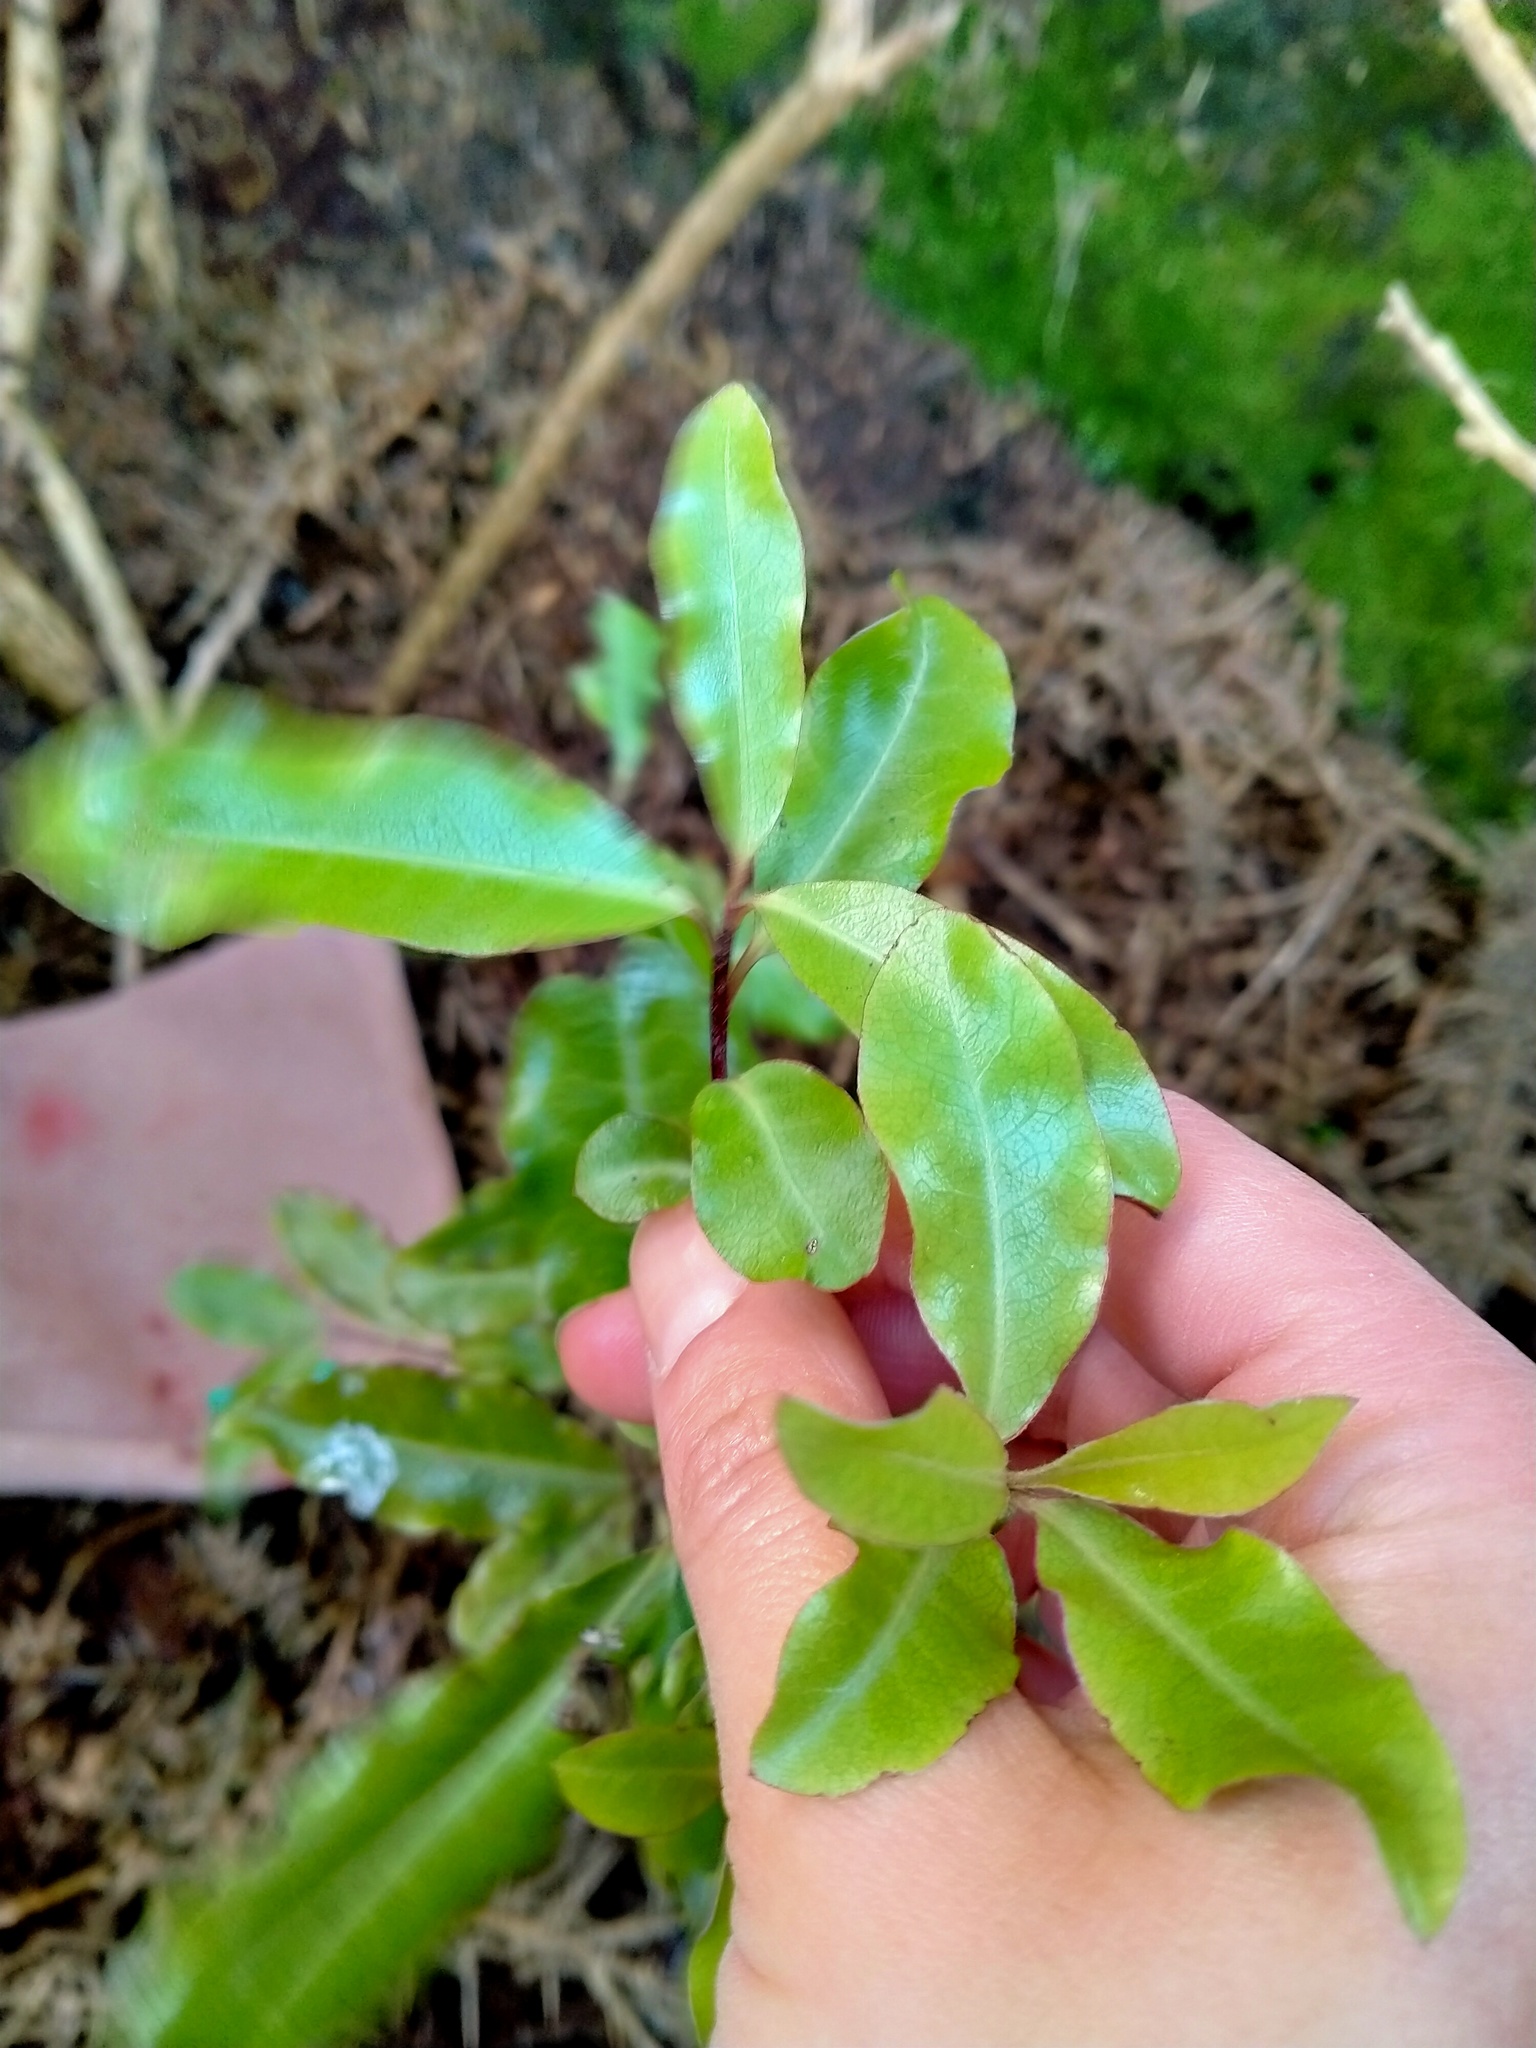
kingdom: Plantae
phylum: Tracheophyta
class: Magnoliopsida
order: Apiales
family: Pittosporaceae
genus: Pittosporum
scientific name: Pittosporum tenuifolium
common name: Kohuhu
